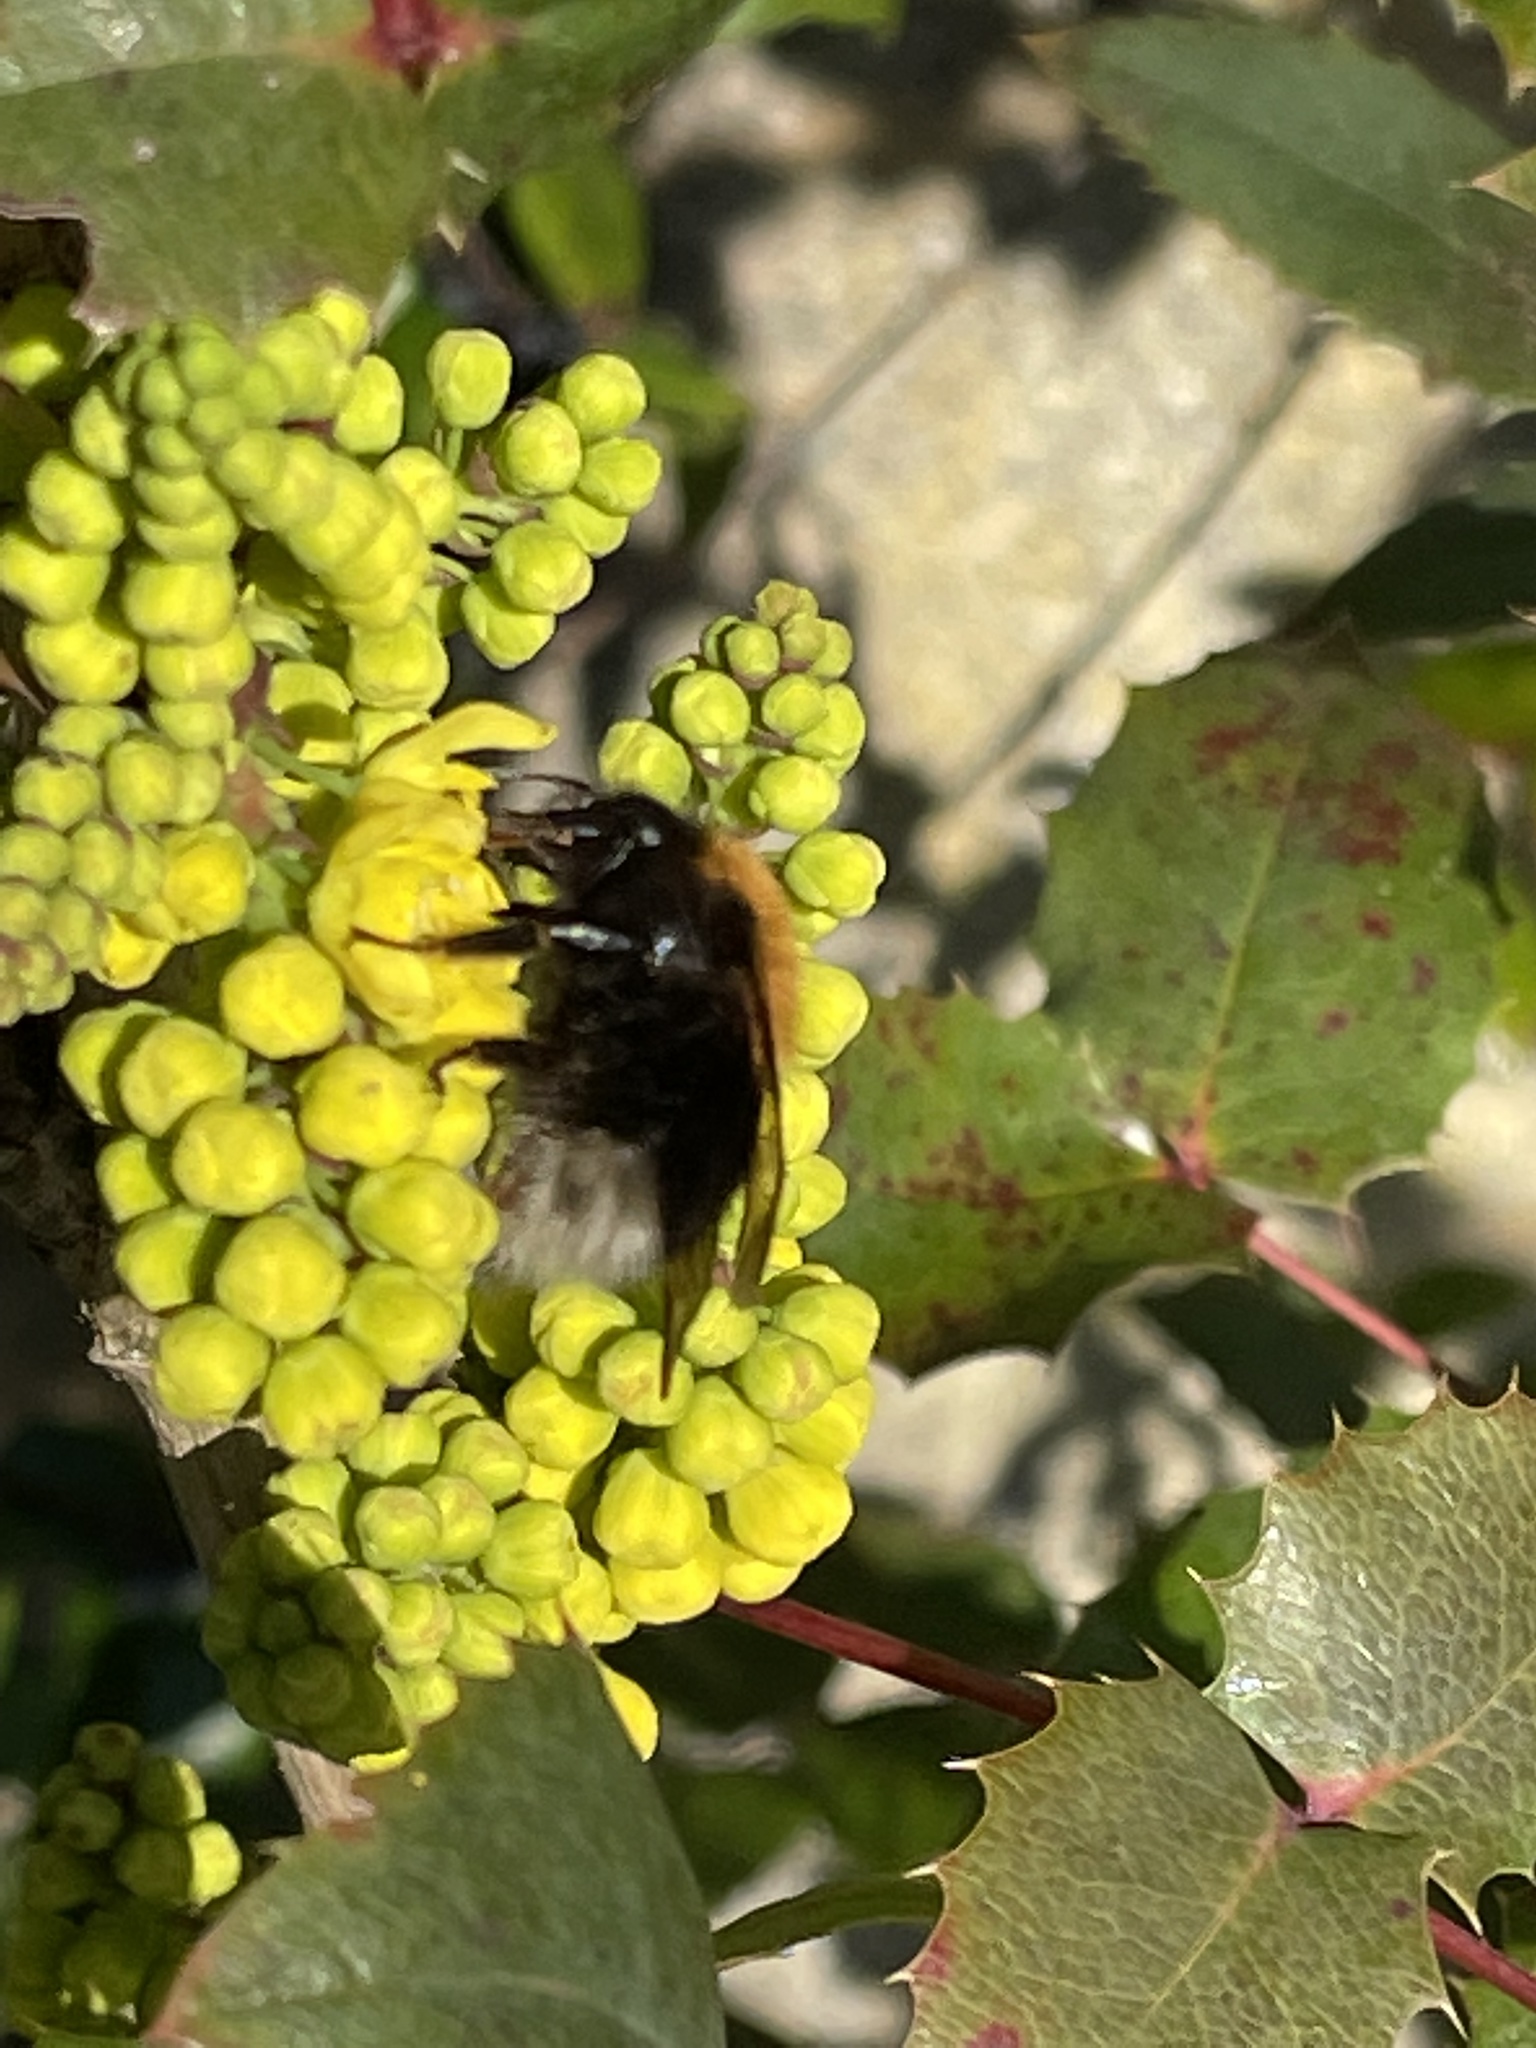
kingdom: Animalia
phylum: Arthropoda
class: Insecta
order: Hymenoptera
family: Apidae
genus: Bombus
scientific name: Bombus hypnorum
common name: New garden bumblebee
